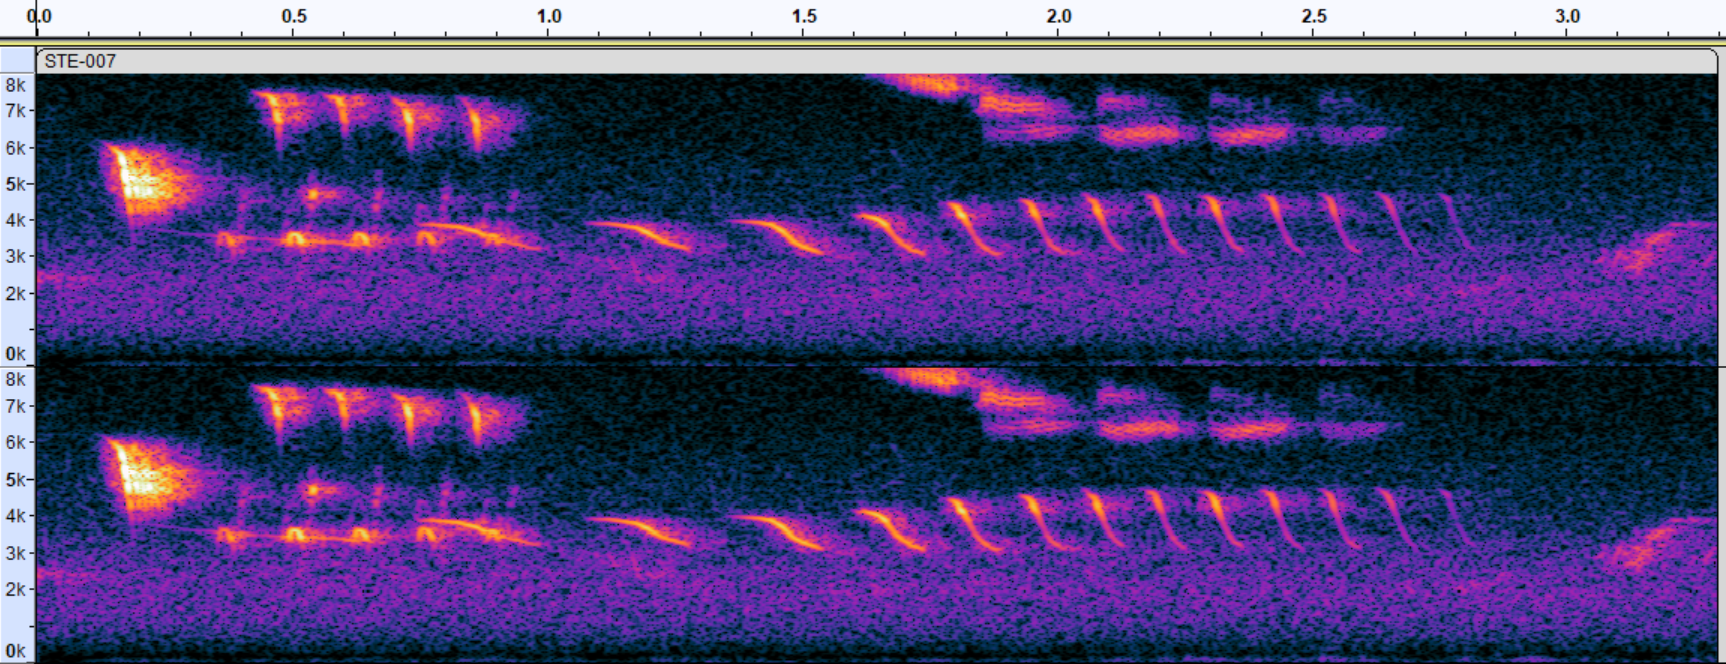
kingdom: Animalia
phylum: Chordata
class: Aves
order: Passeriformes
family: Passerellidae
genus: Spizella
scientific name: Spizella pusilla
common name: Field sparrow
